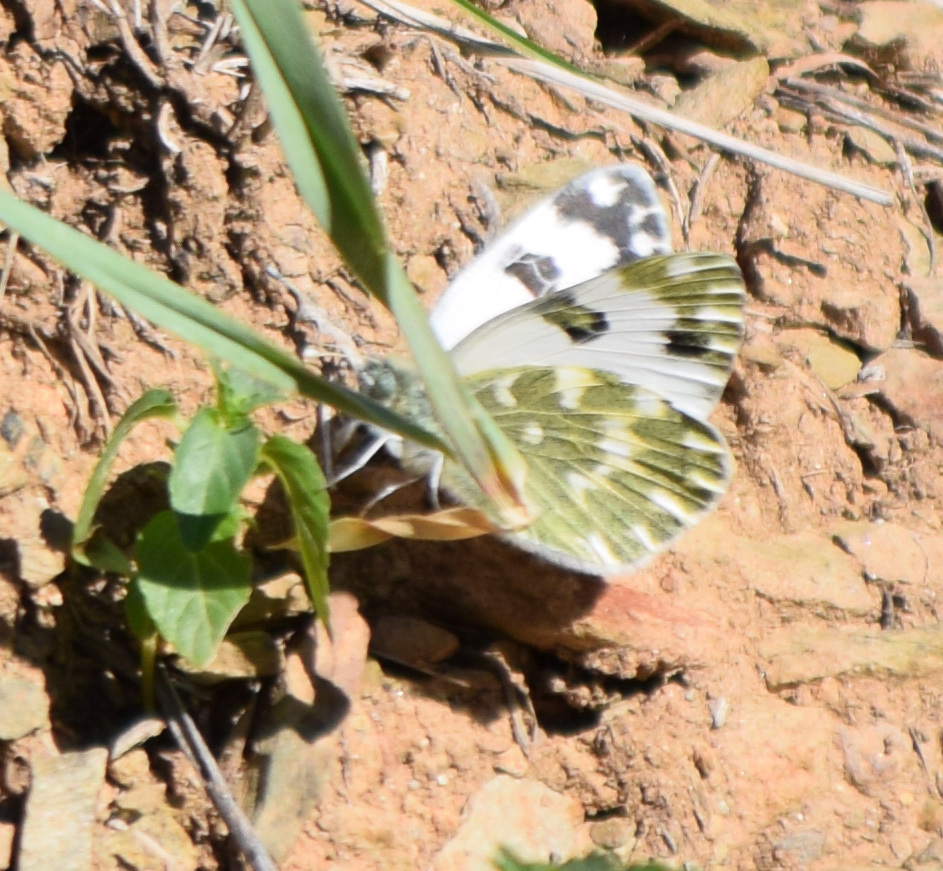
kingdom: Animalia
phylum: Arthropoda
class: Insecta
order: Lepidoptera
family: Pieridae
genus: Pontia
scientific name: Pontia daplidice
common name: Bath white
